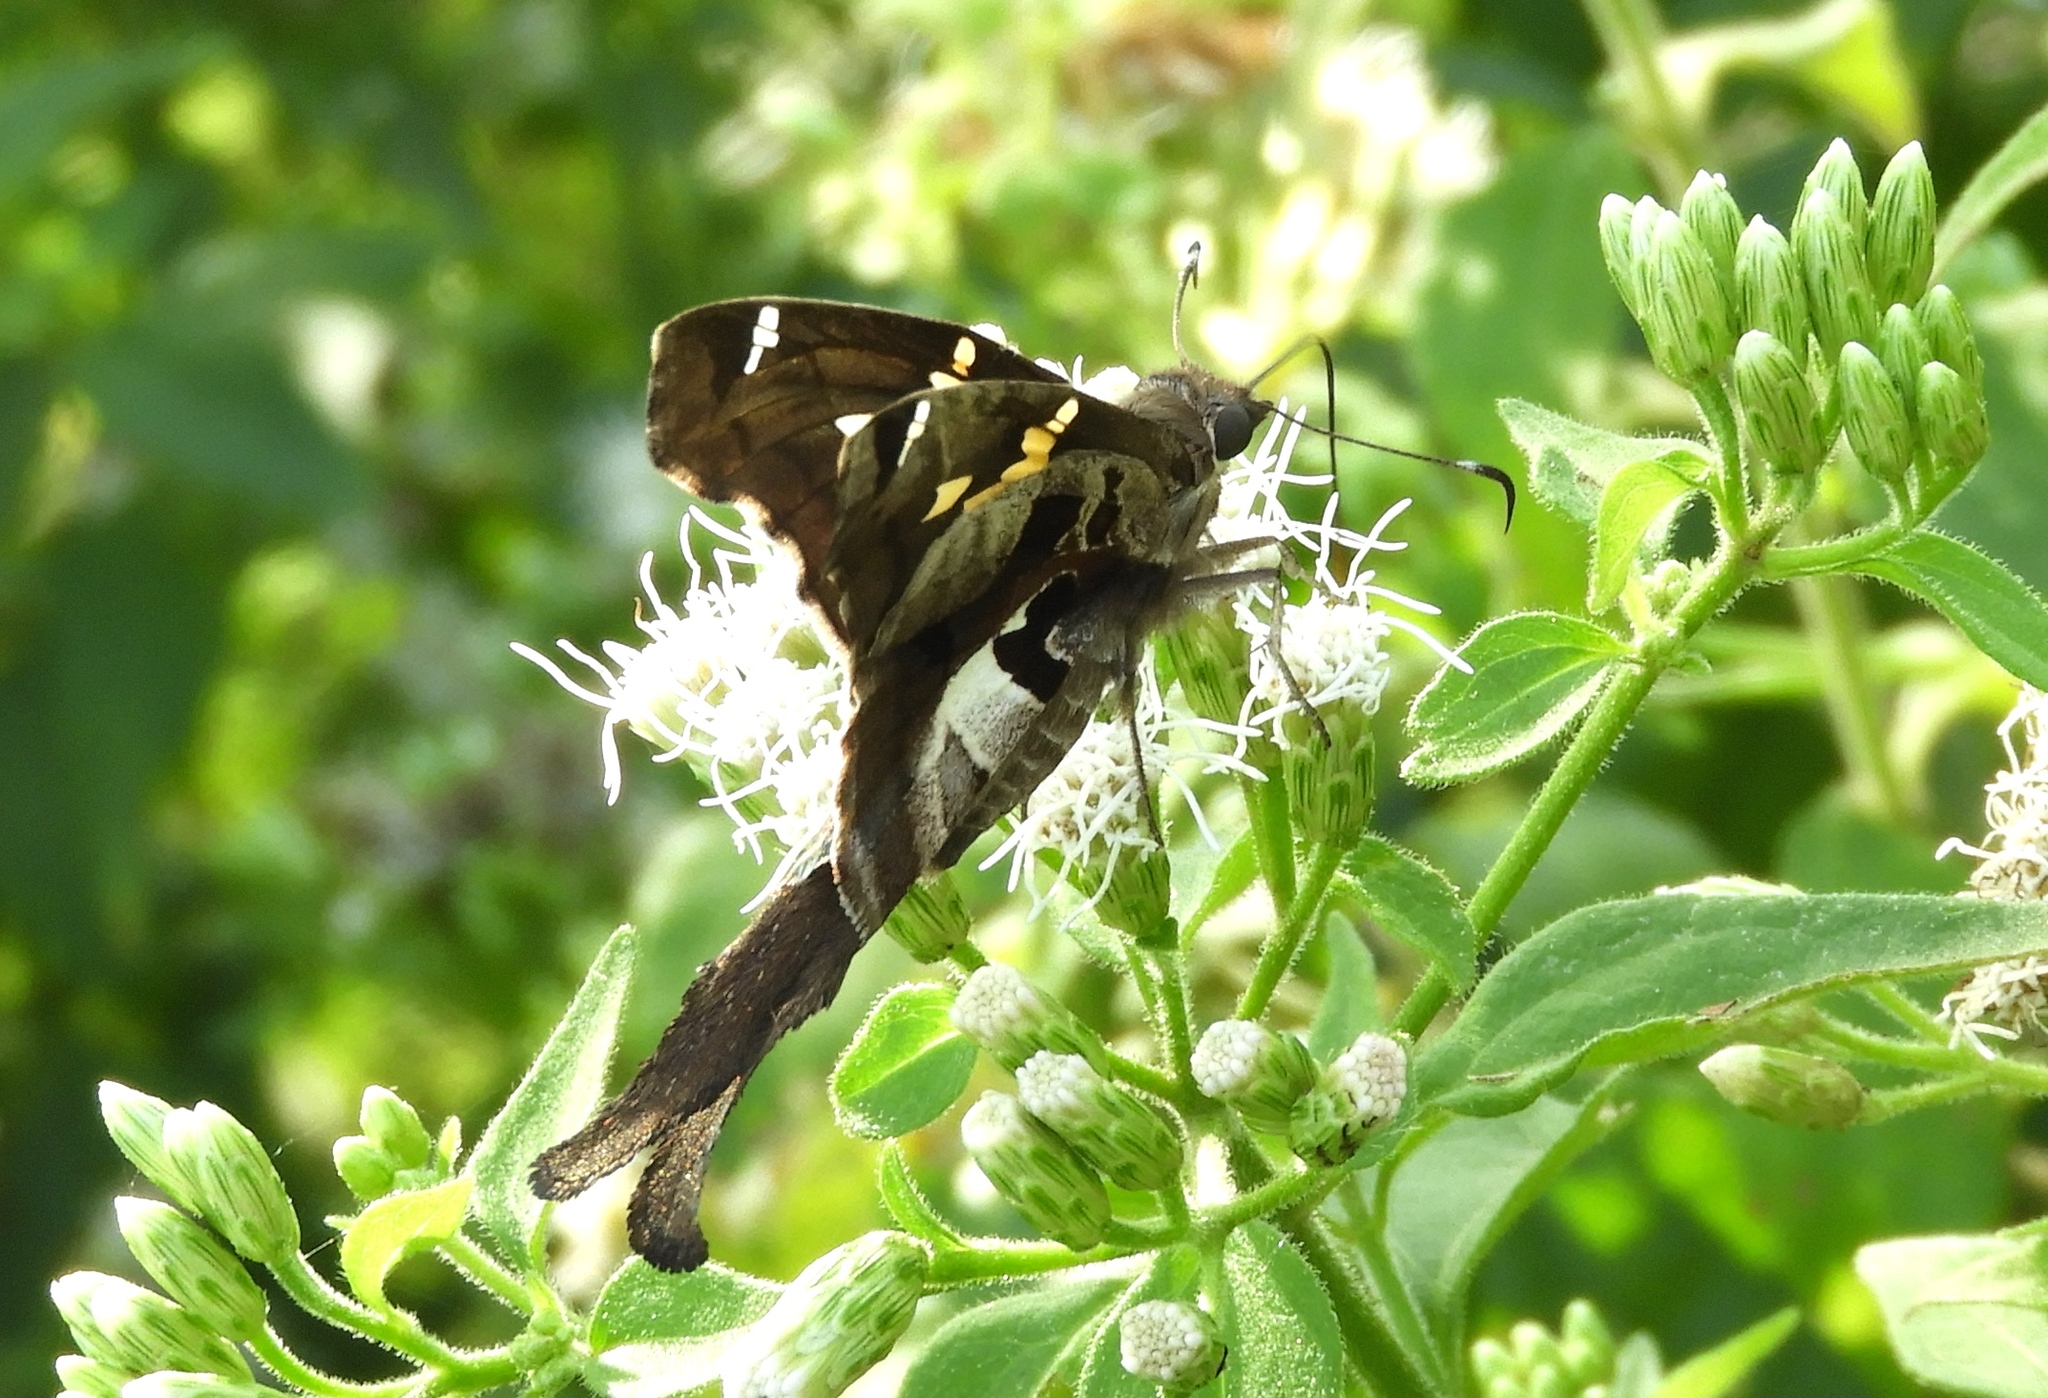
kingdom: Animalia
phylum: Arthropoda
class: Insecta
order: Lepidoptera
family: Hesperiidae
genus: Chioides
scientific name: Chioides zilpa
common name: Zilpa longtail
